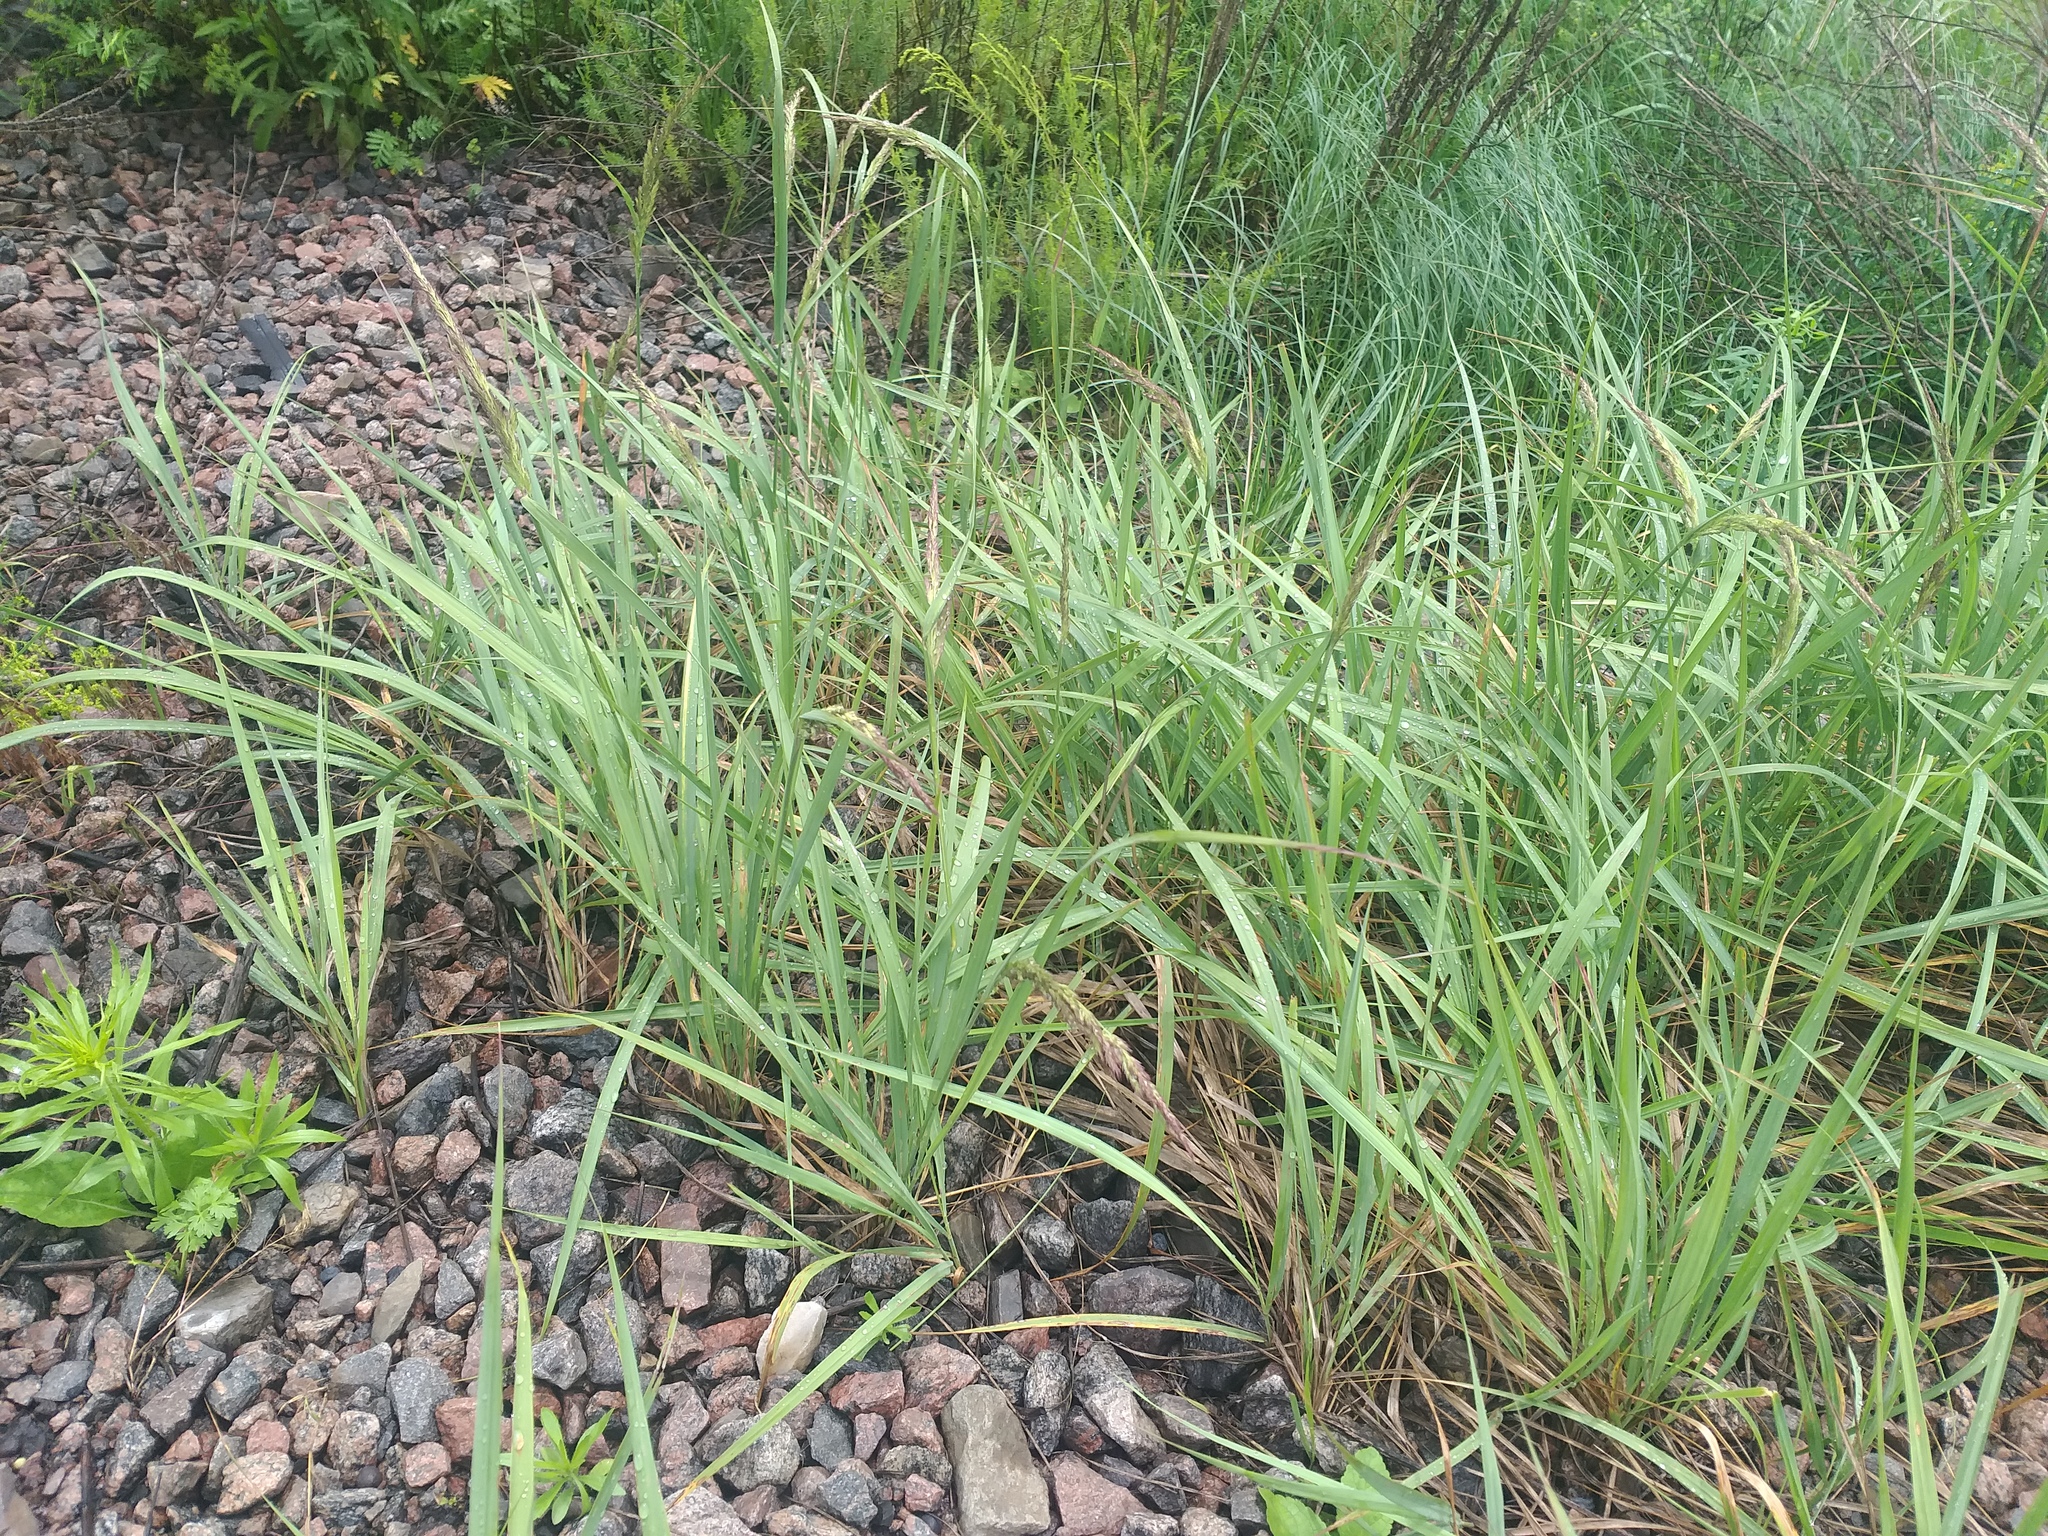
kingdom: Plantae
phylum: Tracheophyta
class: Liliopsida
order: Poales
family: Poaceae
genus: Calamagrostis
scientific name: Calamagrostis epigejos
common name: Wood small-reed
